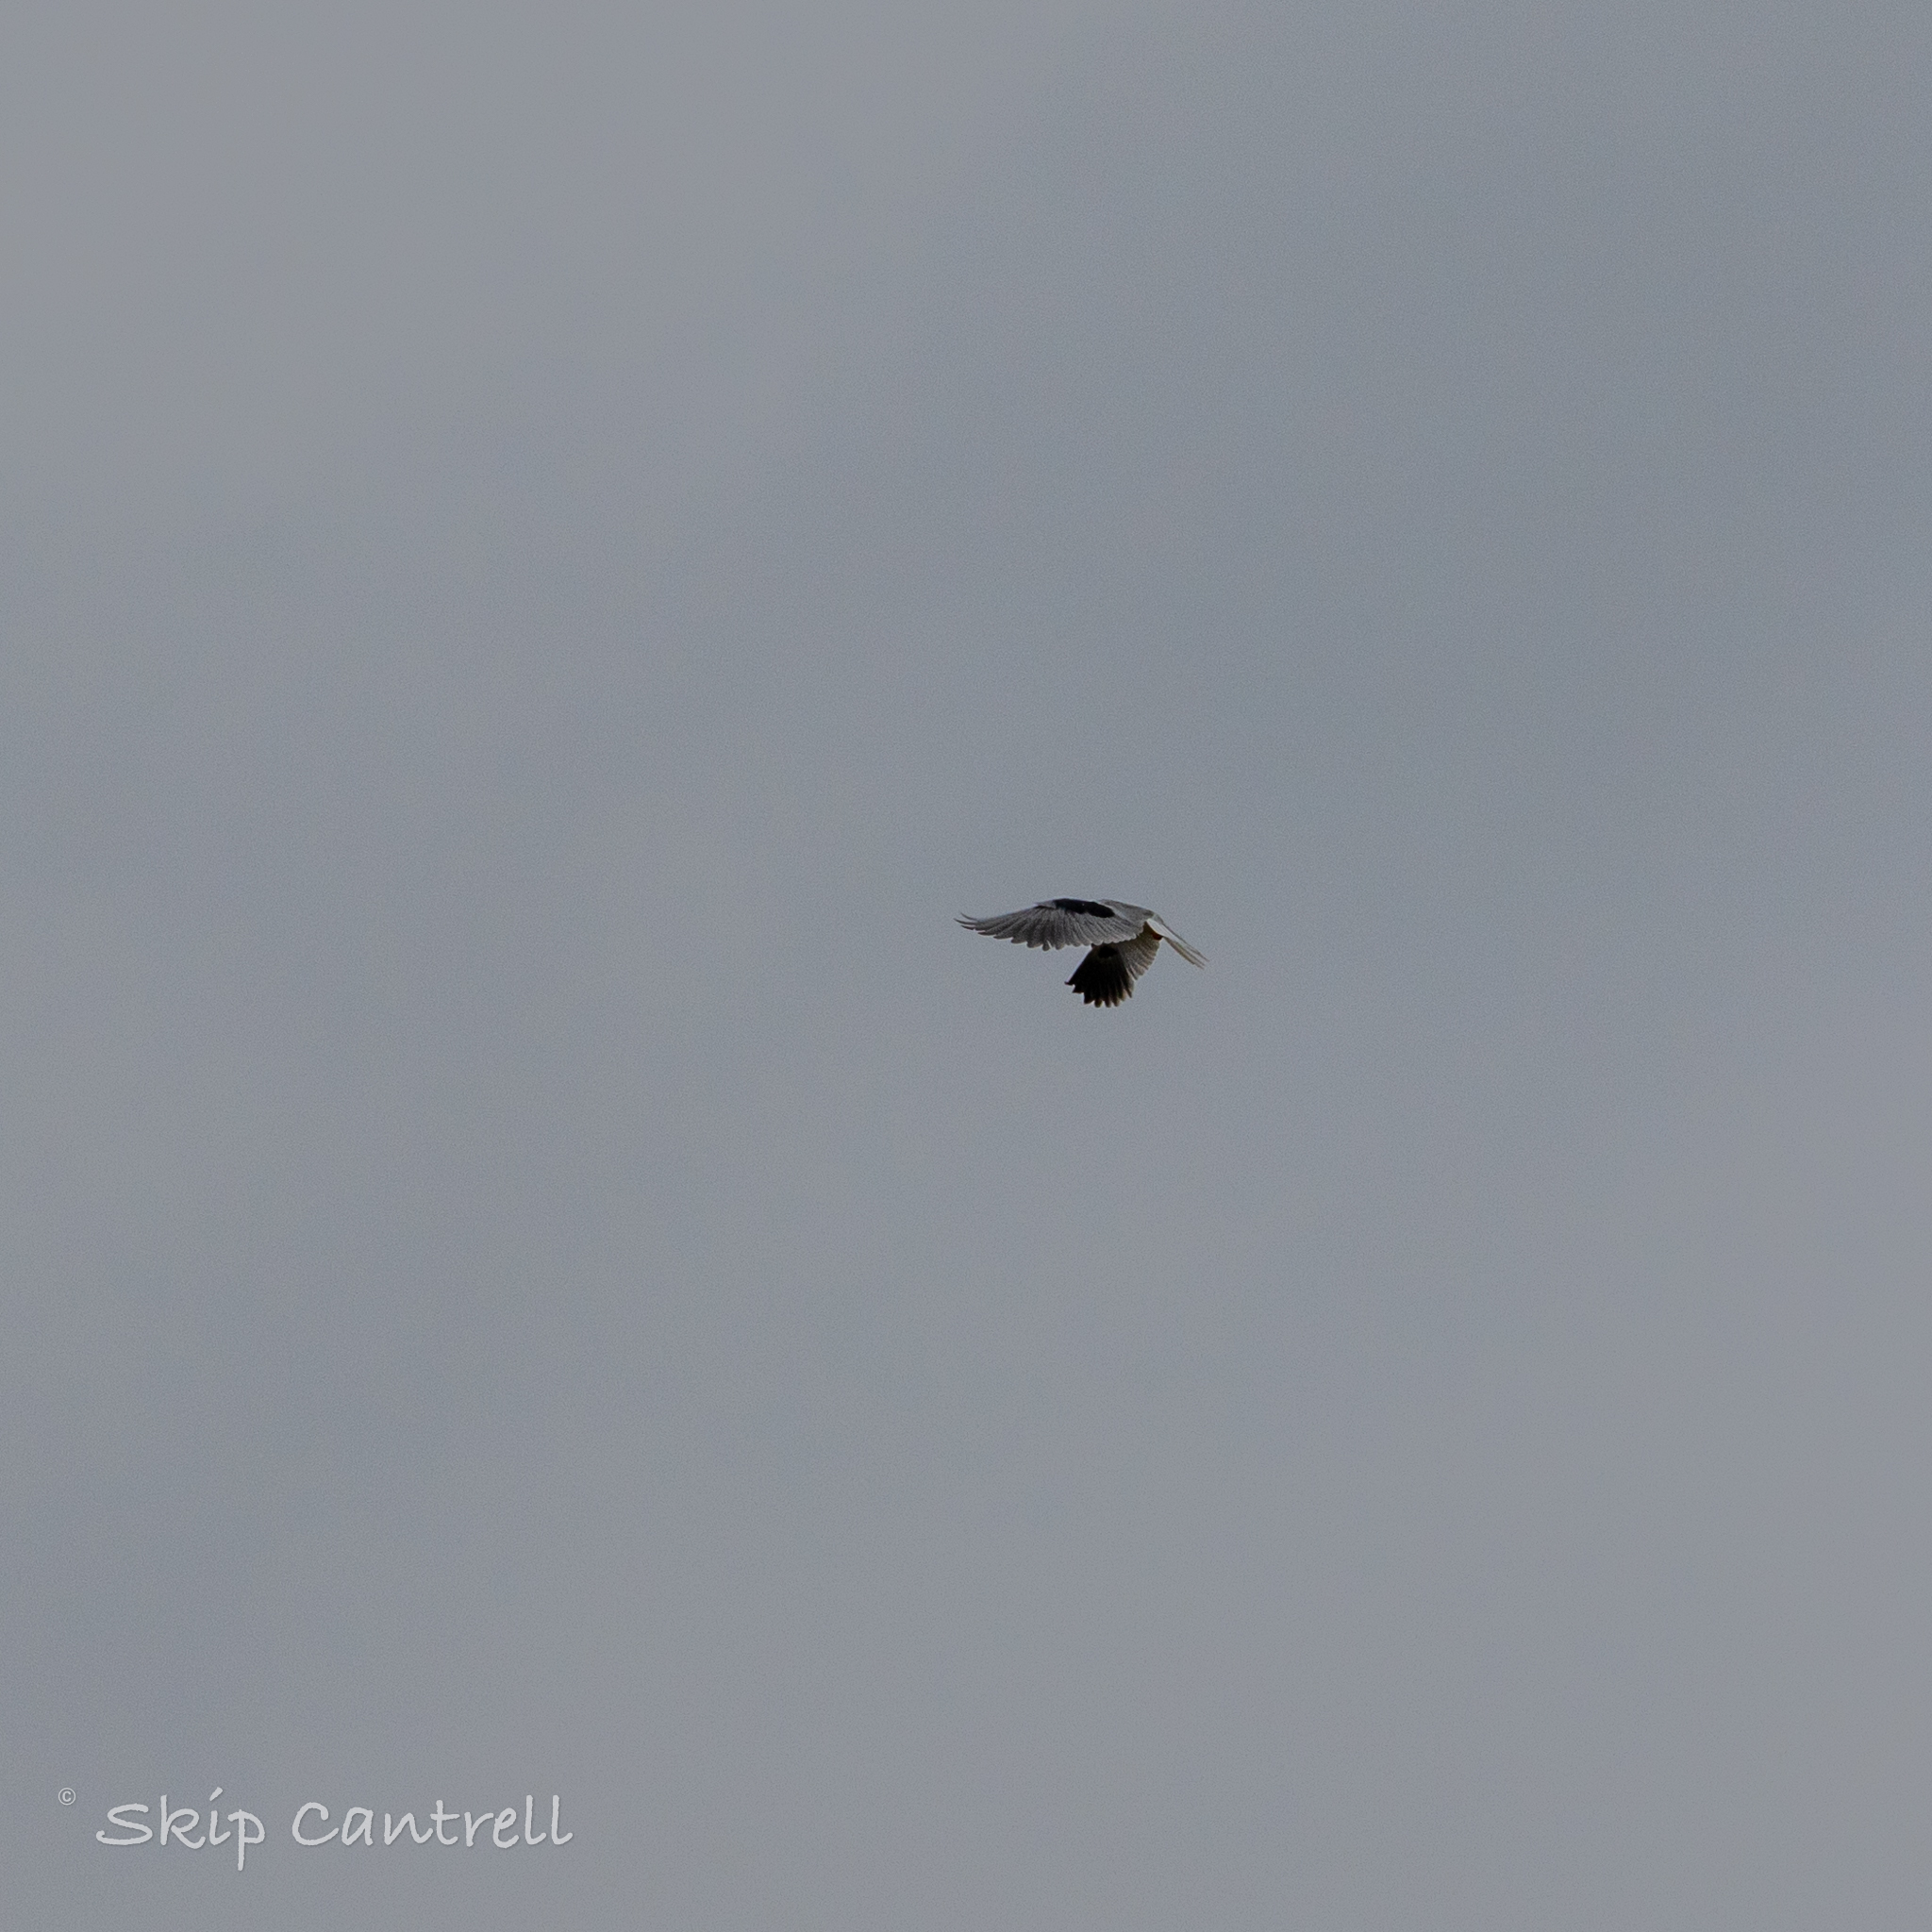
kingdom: Animalia
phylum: Chordata
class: Aves
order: Accipitriformes
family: Accipitridae
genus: Elanus
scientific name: Elanus leucurus
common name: White-tailed kite
